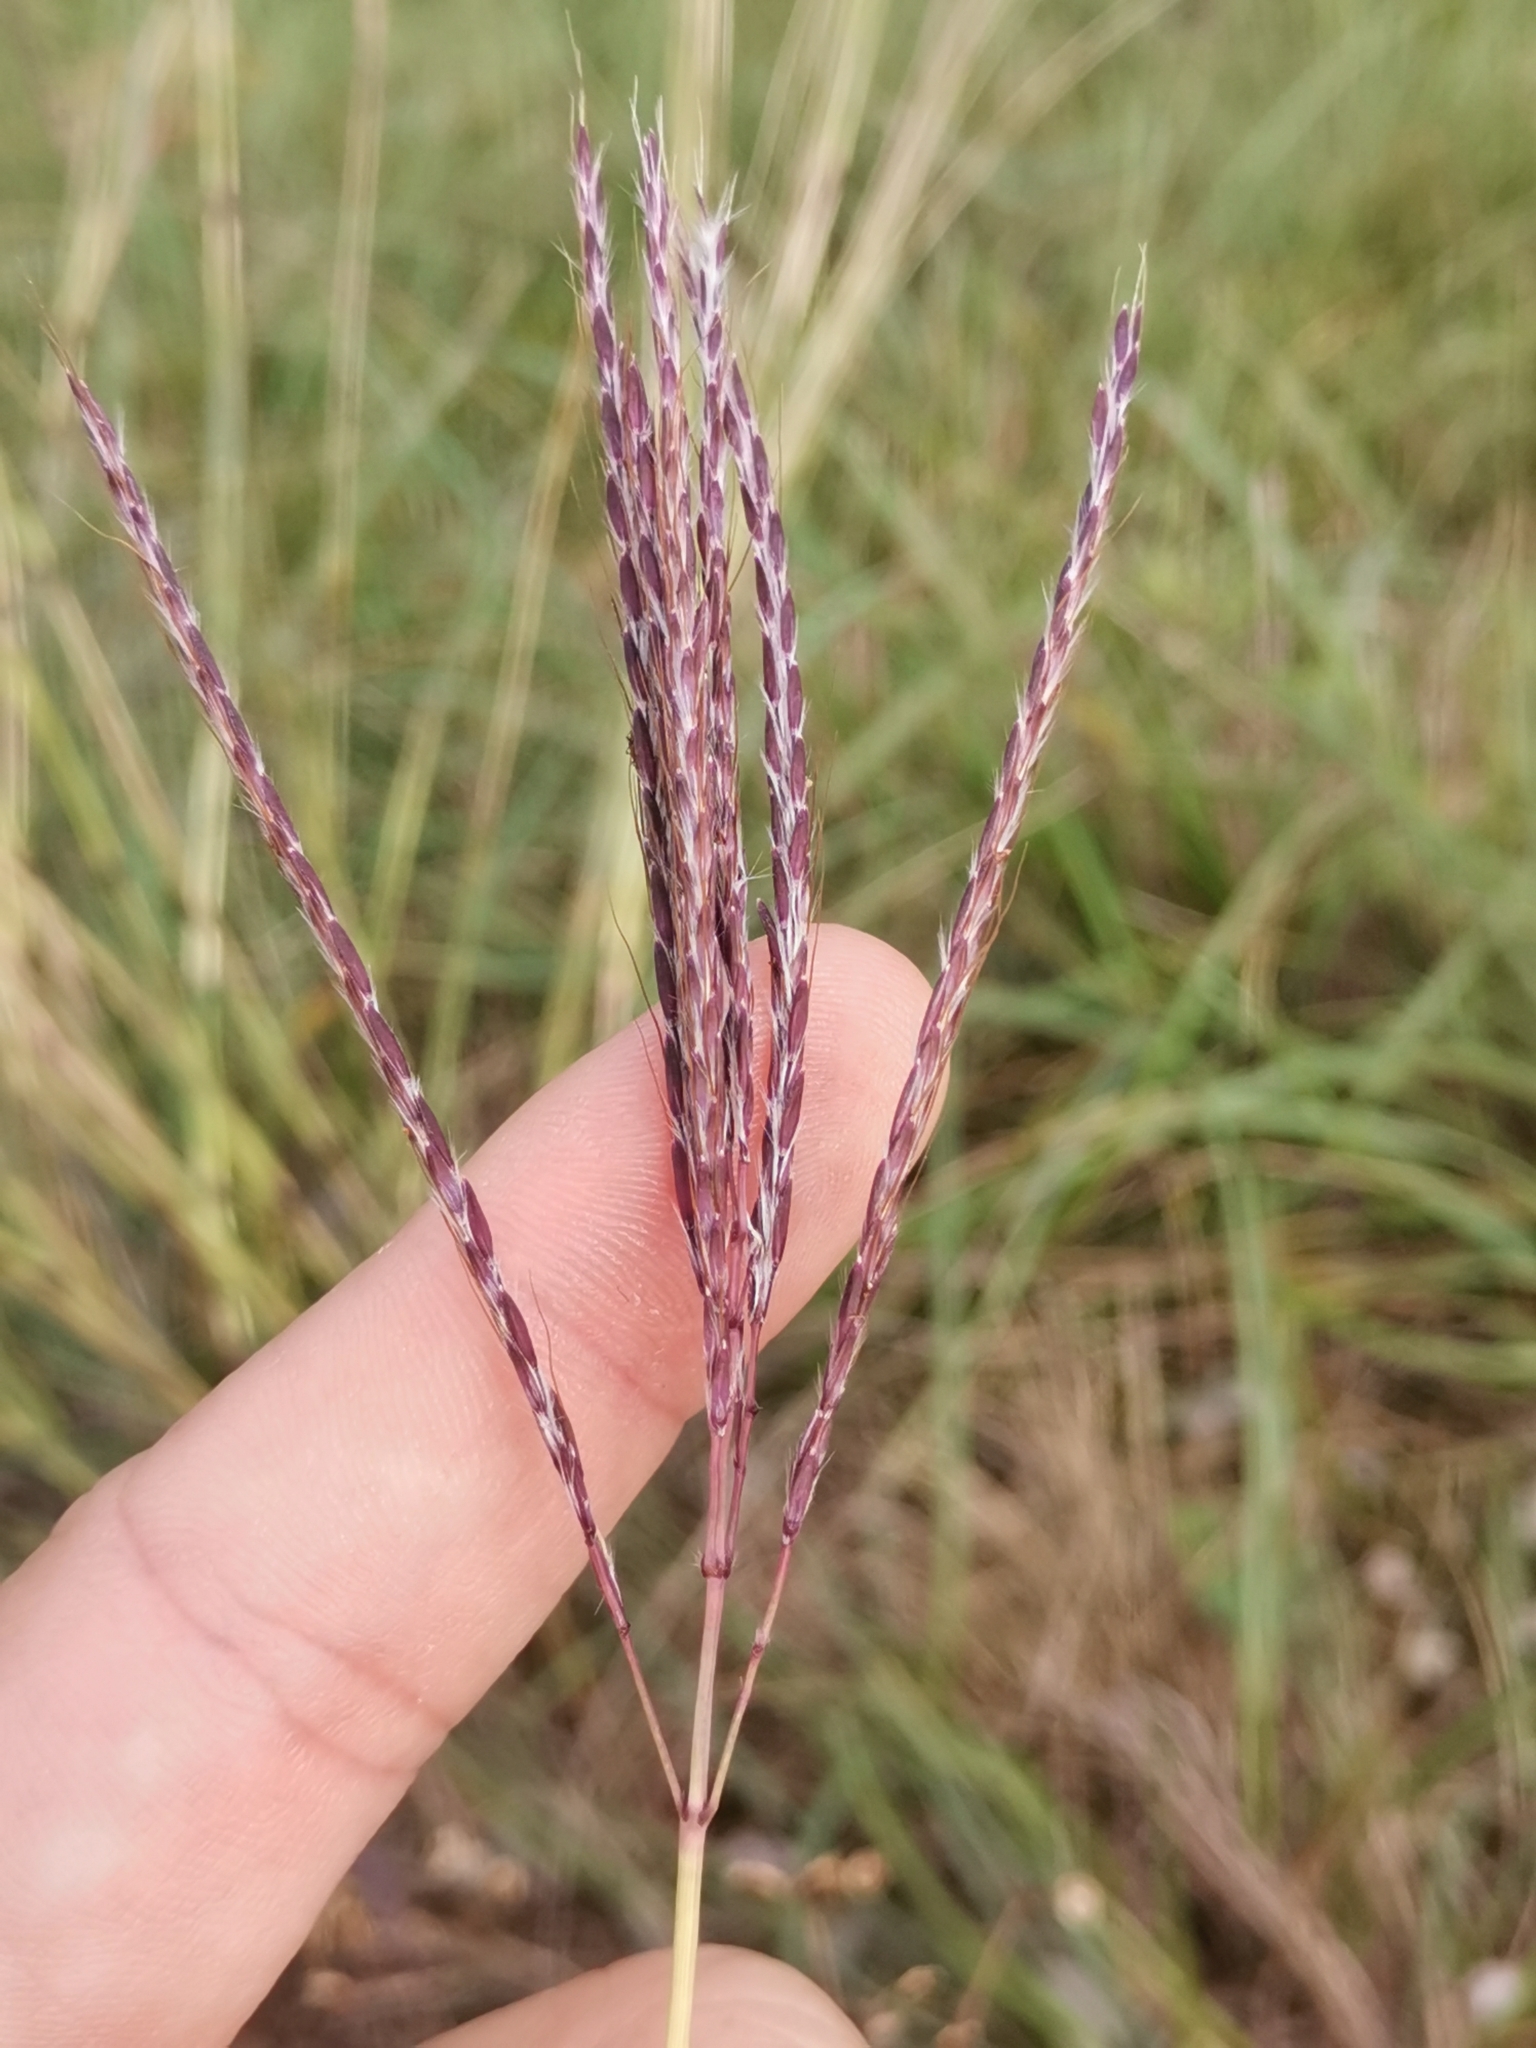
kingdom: Plantae
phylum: Tracheophyta
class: Liliopsida
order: Poales
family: Poaceae
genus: Bothriochloa
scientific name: Bothriochloa ischaemum
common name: Yellow bluestem
